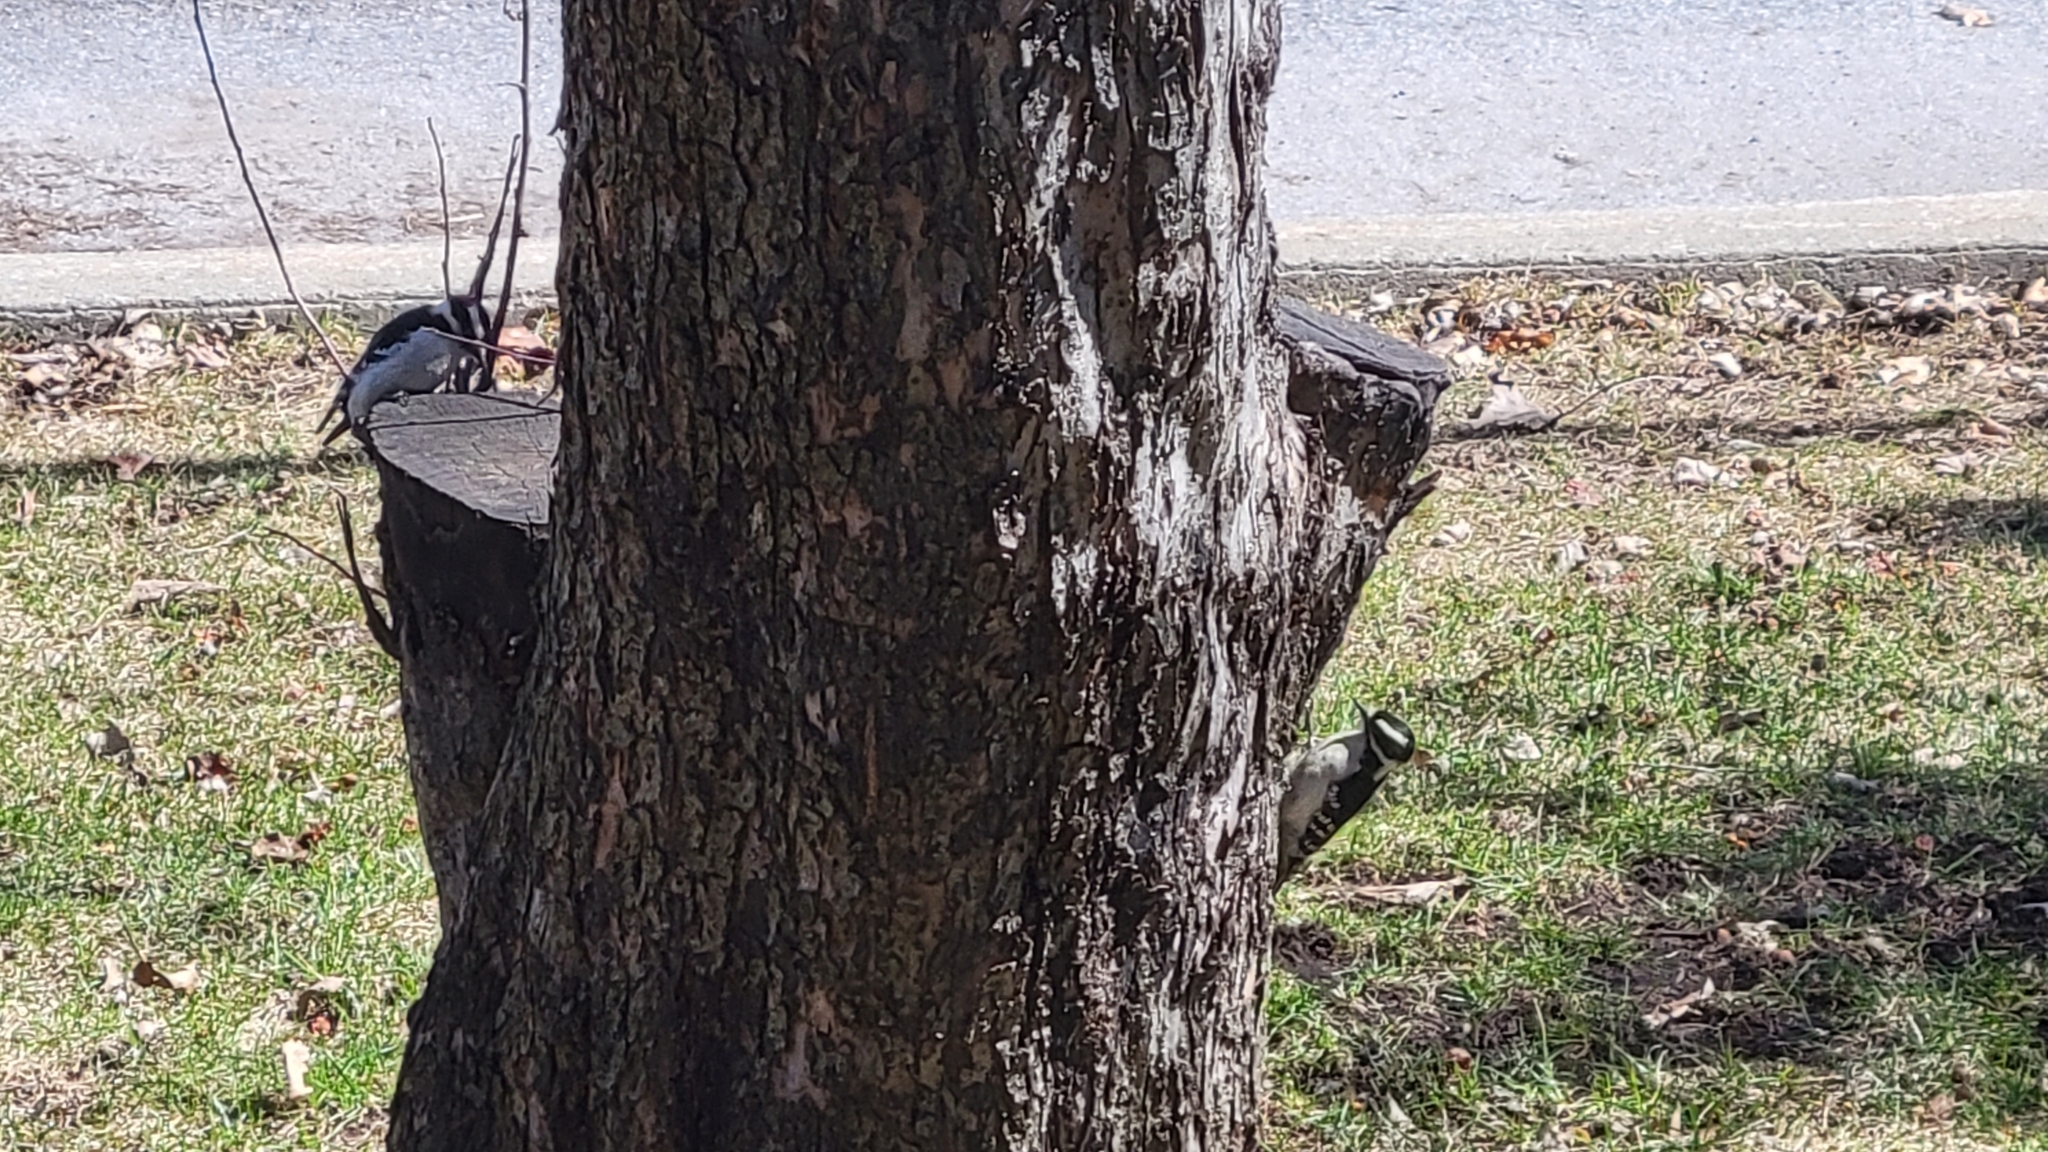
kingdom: Animalia
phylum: Chordata
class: Aves
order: Piciformes
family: Picidae
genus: Dryobates
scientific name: Dryobates pubescens
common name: Downy woodpecker
